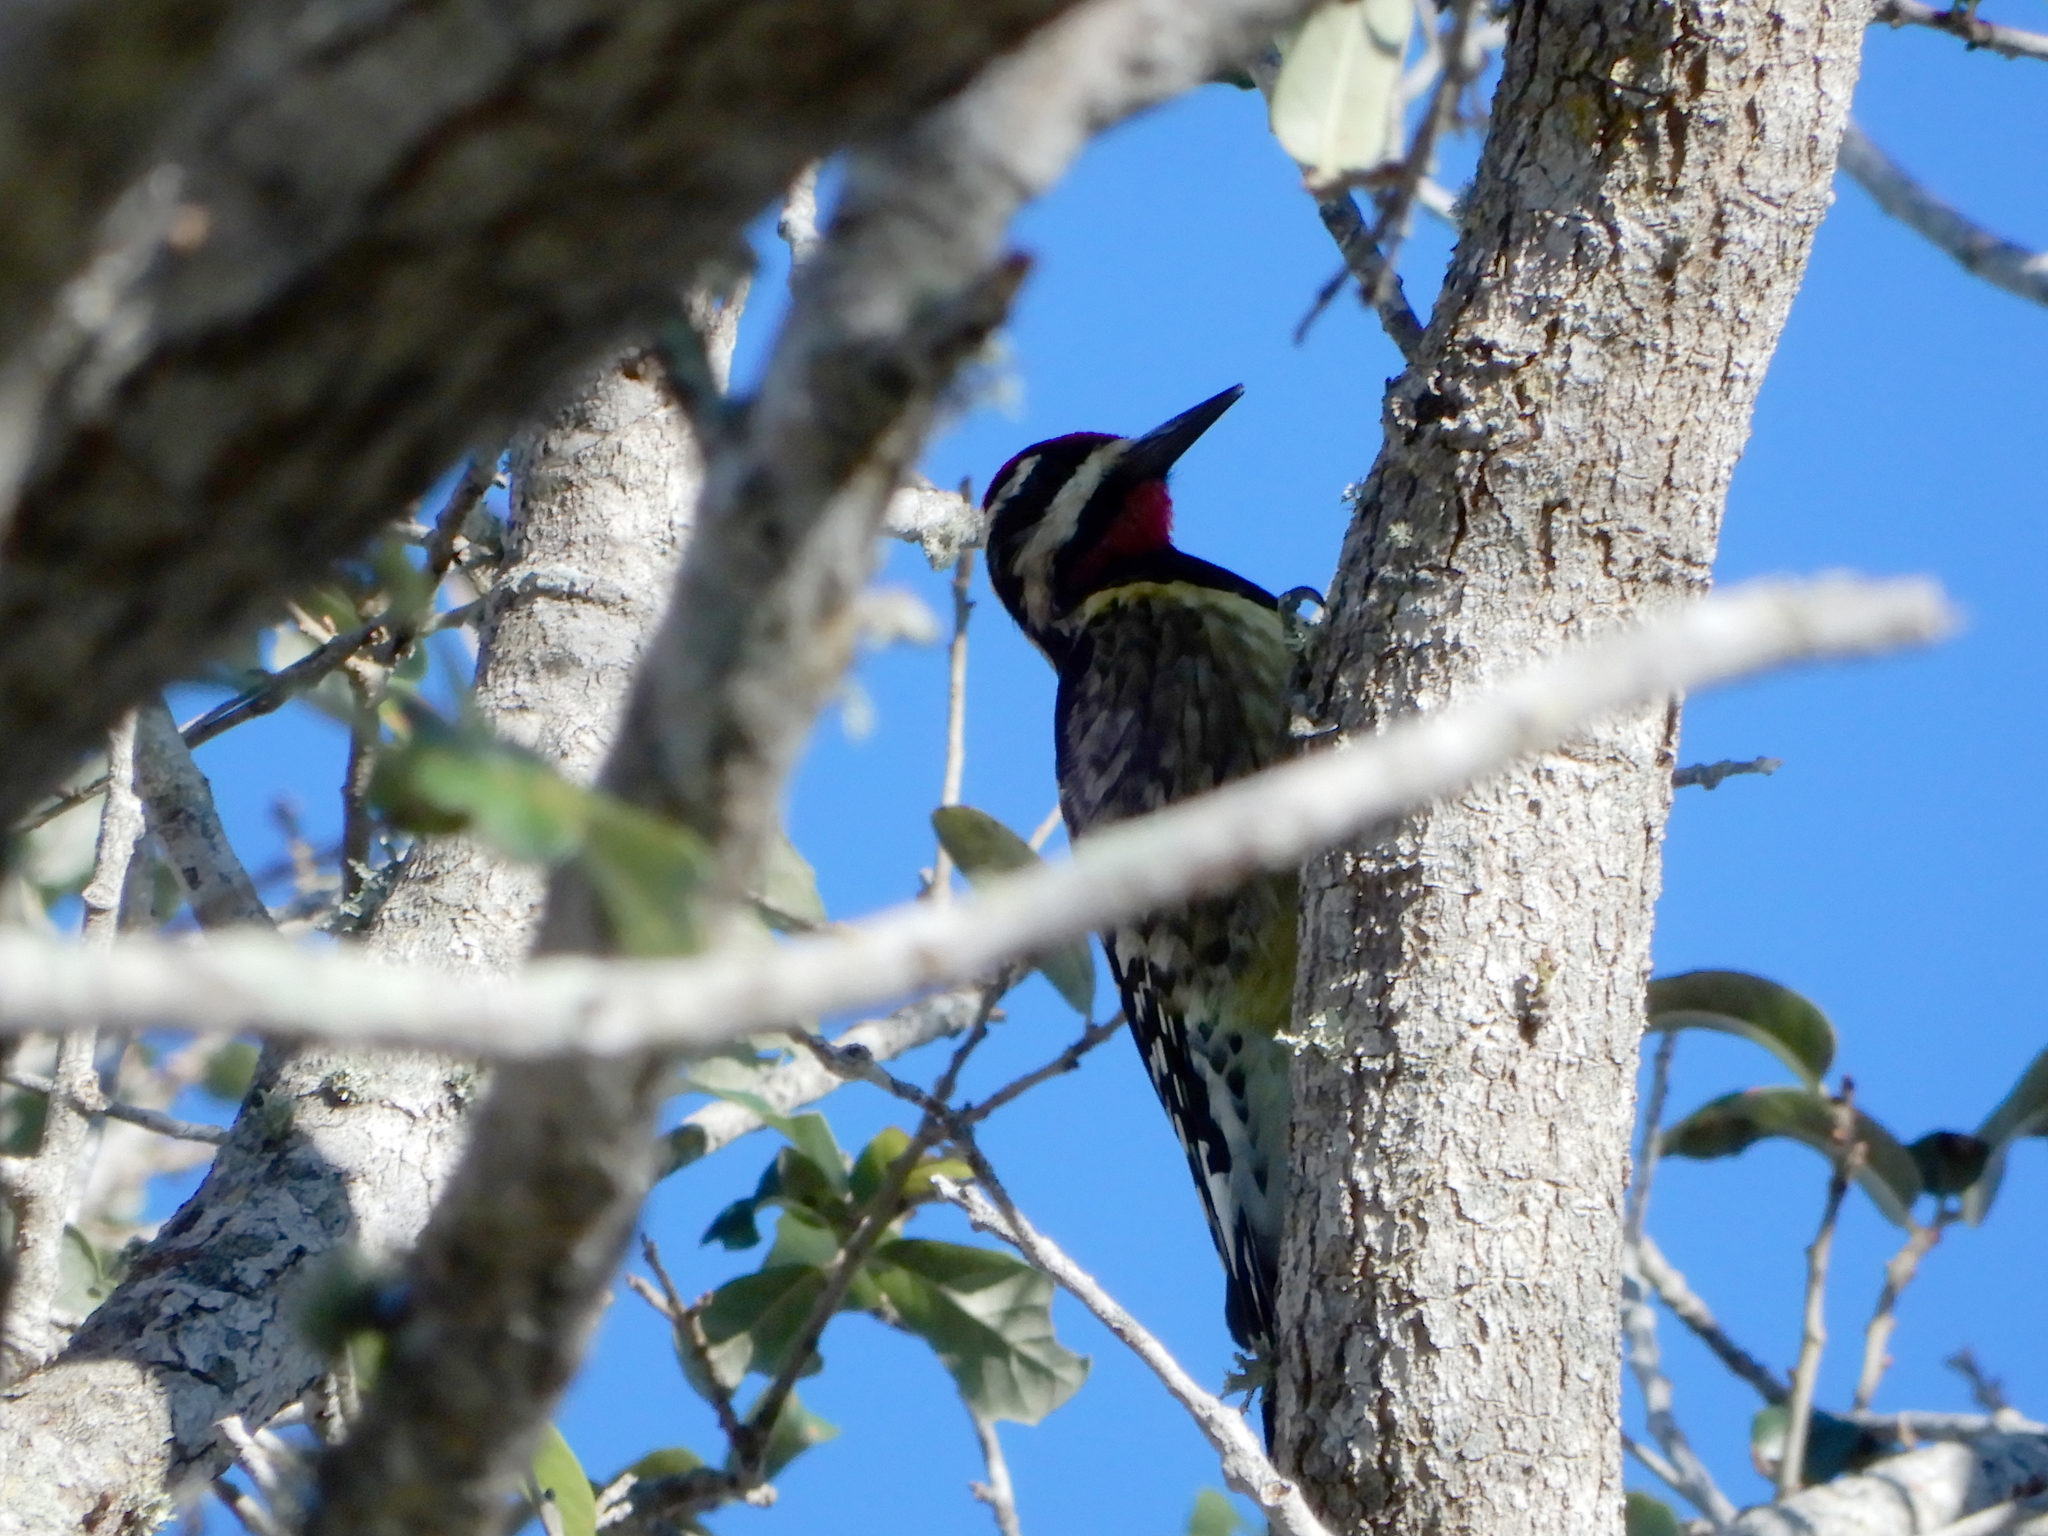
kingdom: Animalia
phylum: Chordata
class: Aves
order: Piciformes
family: Picidae
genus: Sphyrapicus
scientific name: Sphyrapicus varius
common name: Yellow-bellied sapsucker
